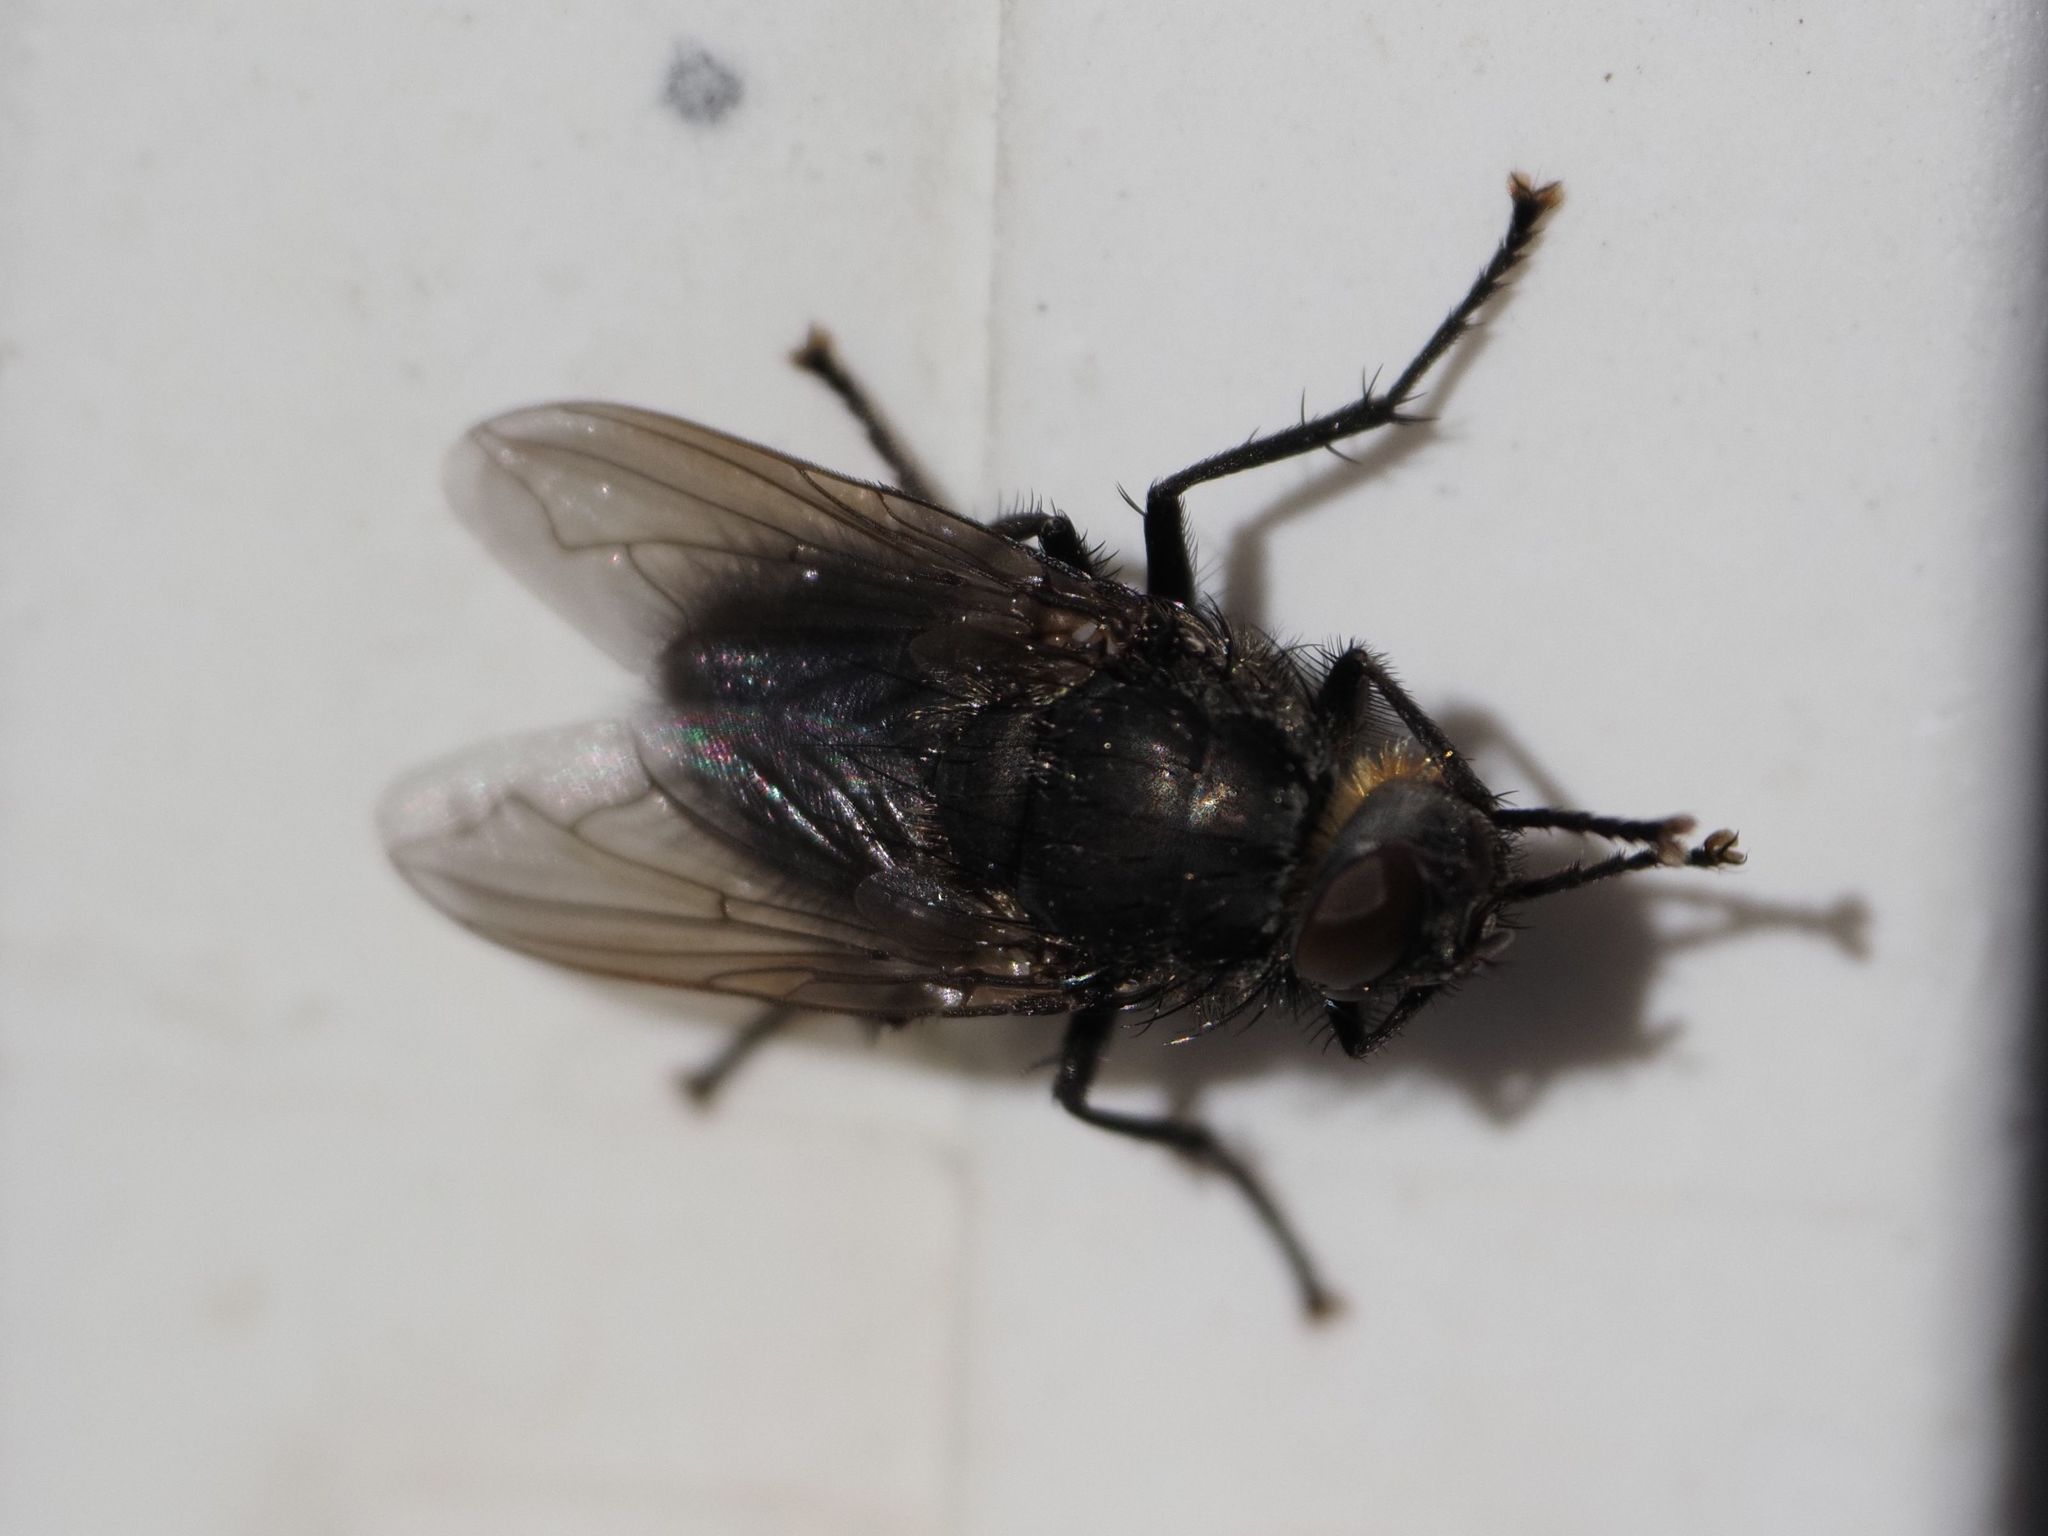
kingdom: Animalia
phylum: Arthropoda
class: Insecta
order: Diptera
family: Polleniidae
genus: Pollenia
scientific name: Pollenia vagabunda
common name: Vagabund cluster fly
